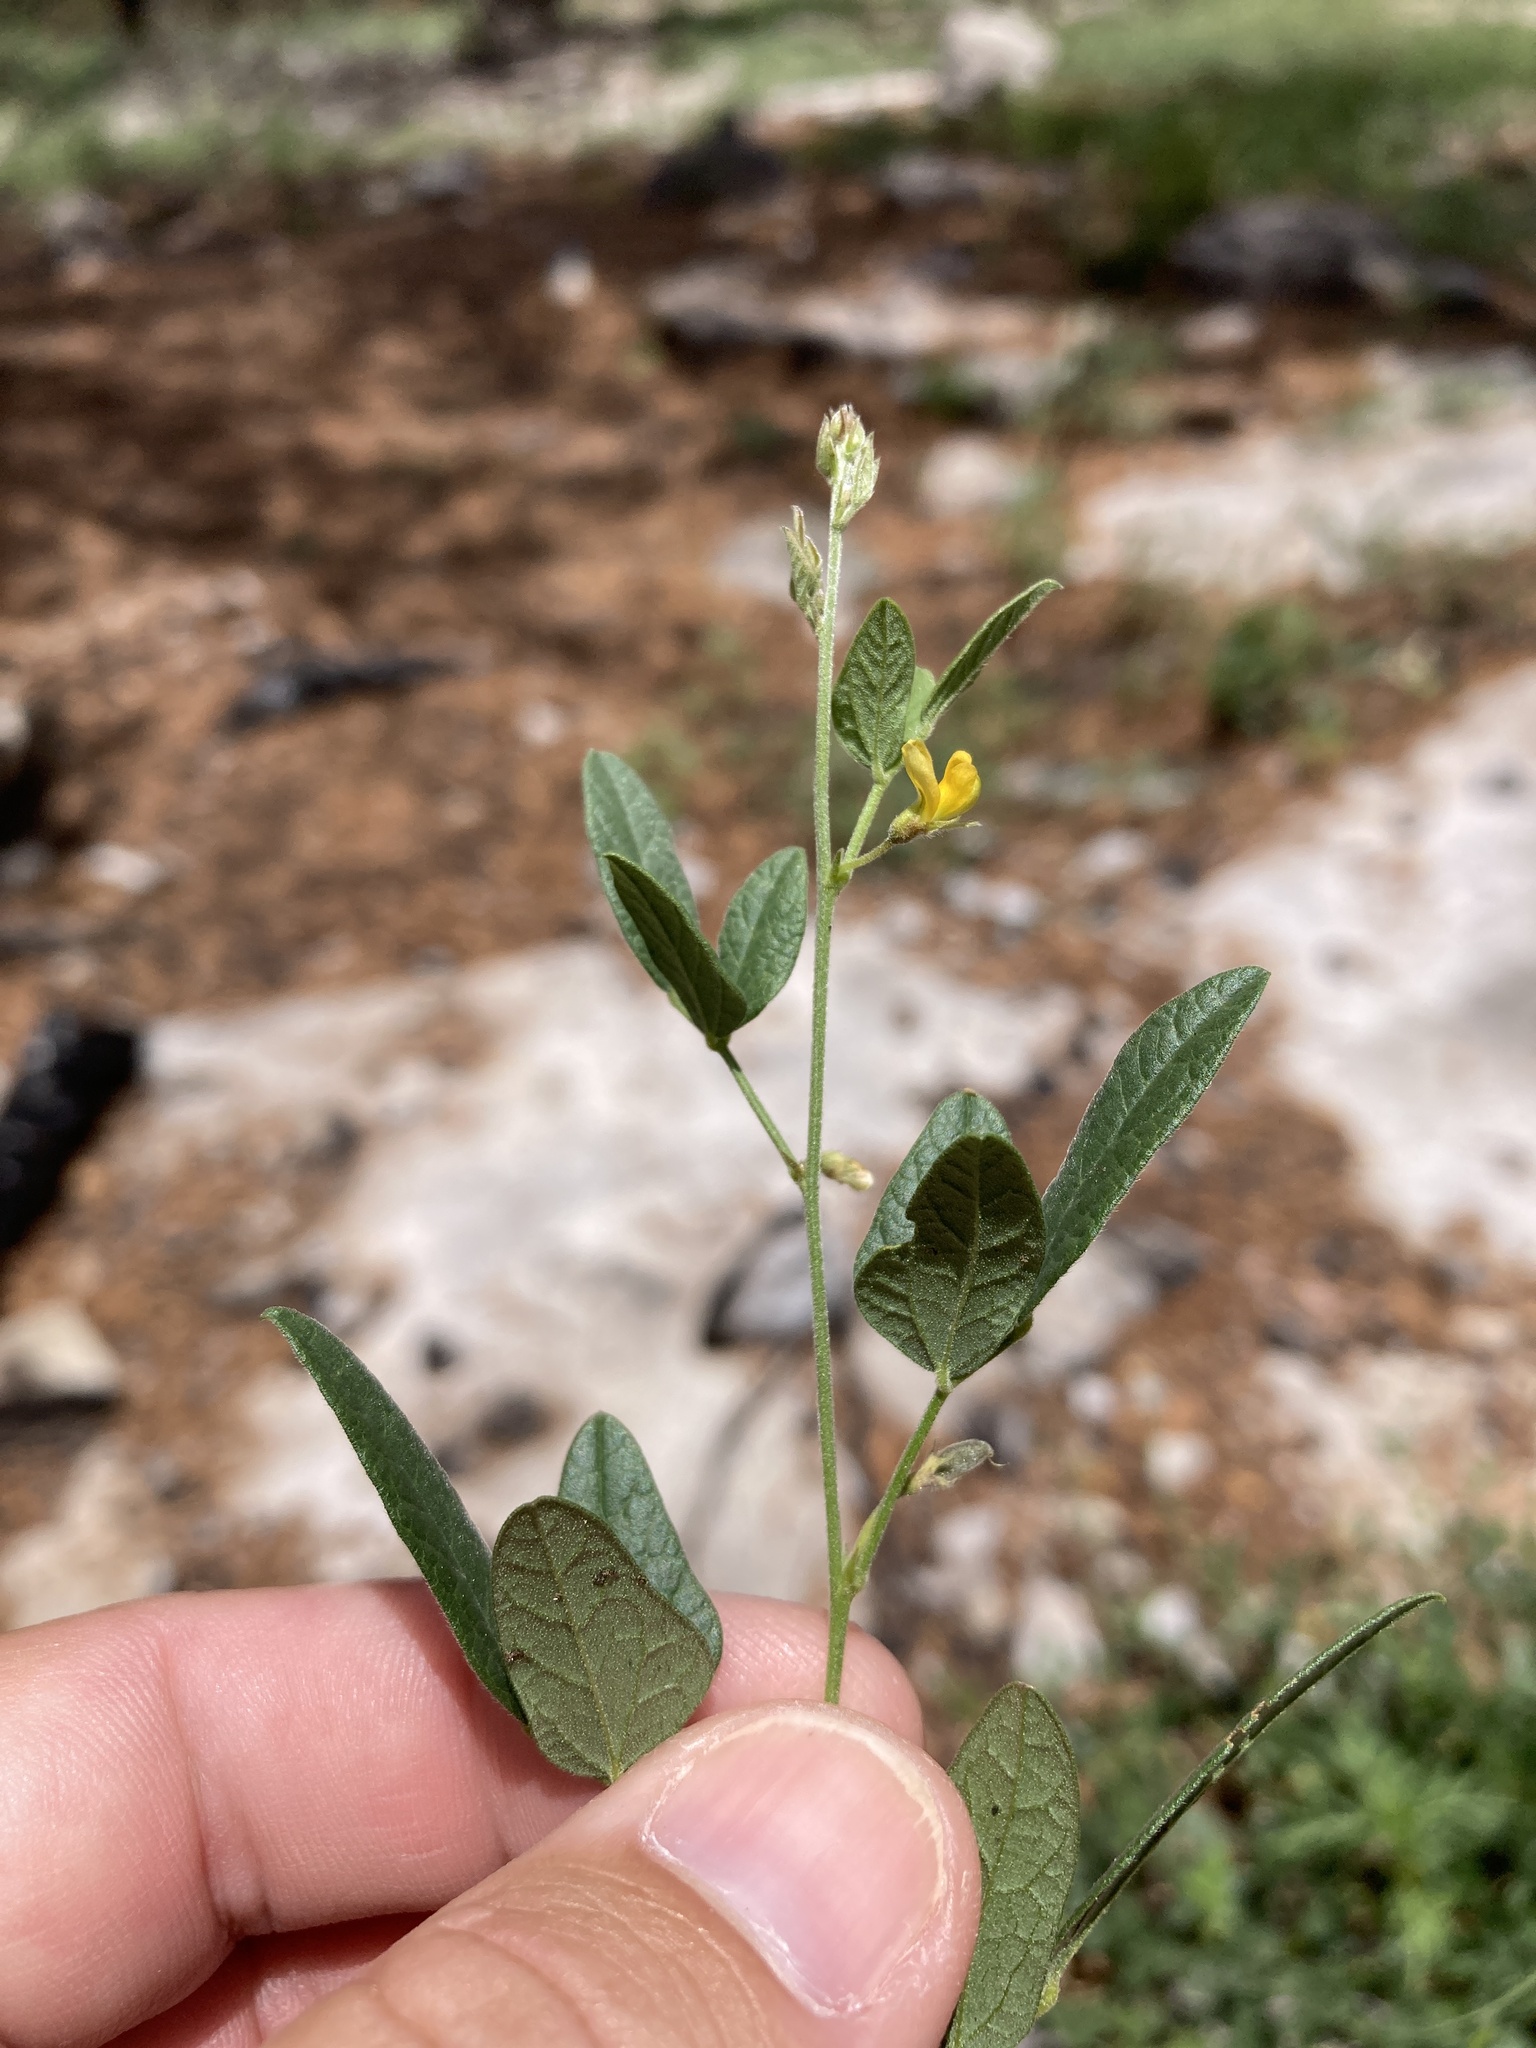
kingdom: Plantae
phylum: Tracheophyta
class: Magnoliopsida
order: Fabales
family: Fabaceae
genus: Rhynchosia
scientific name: Rhynchosia senna
